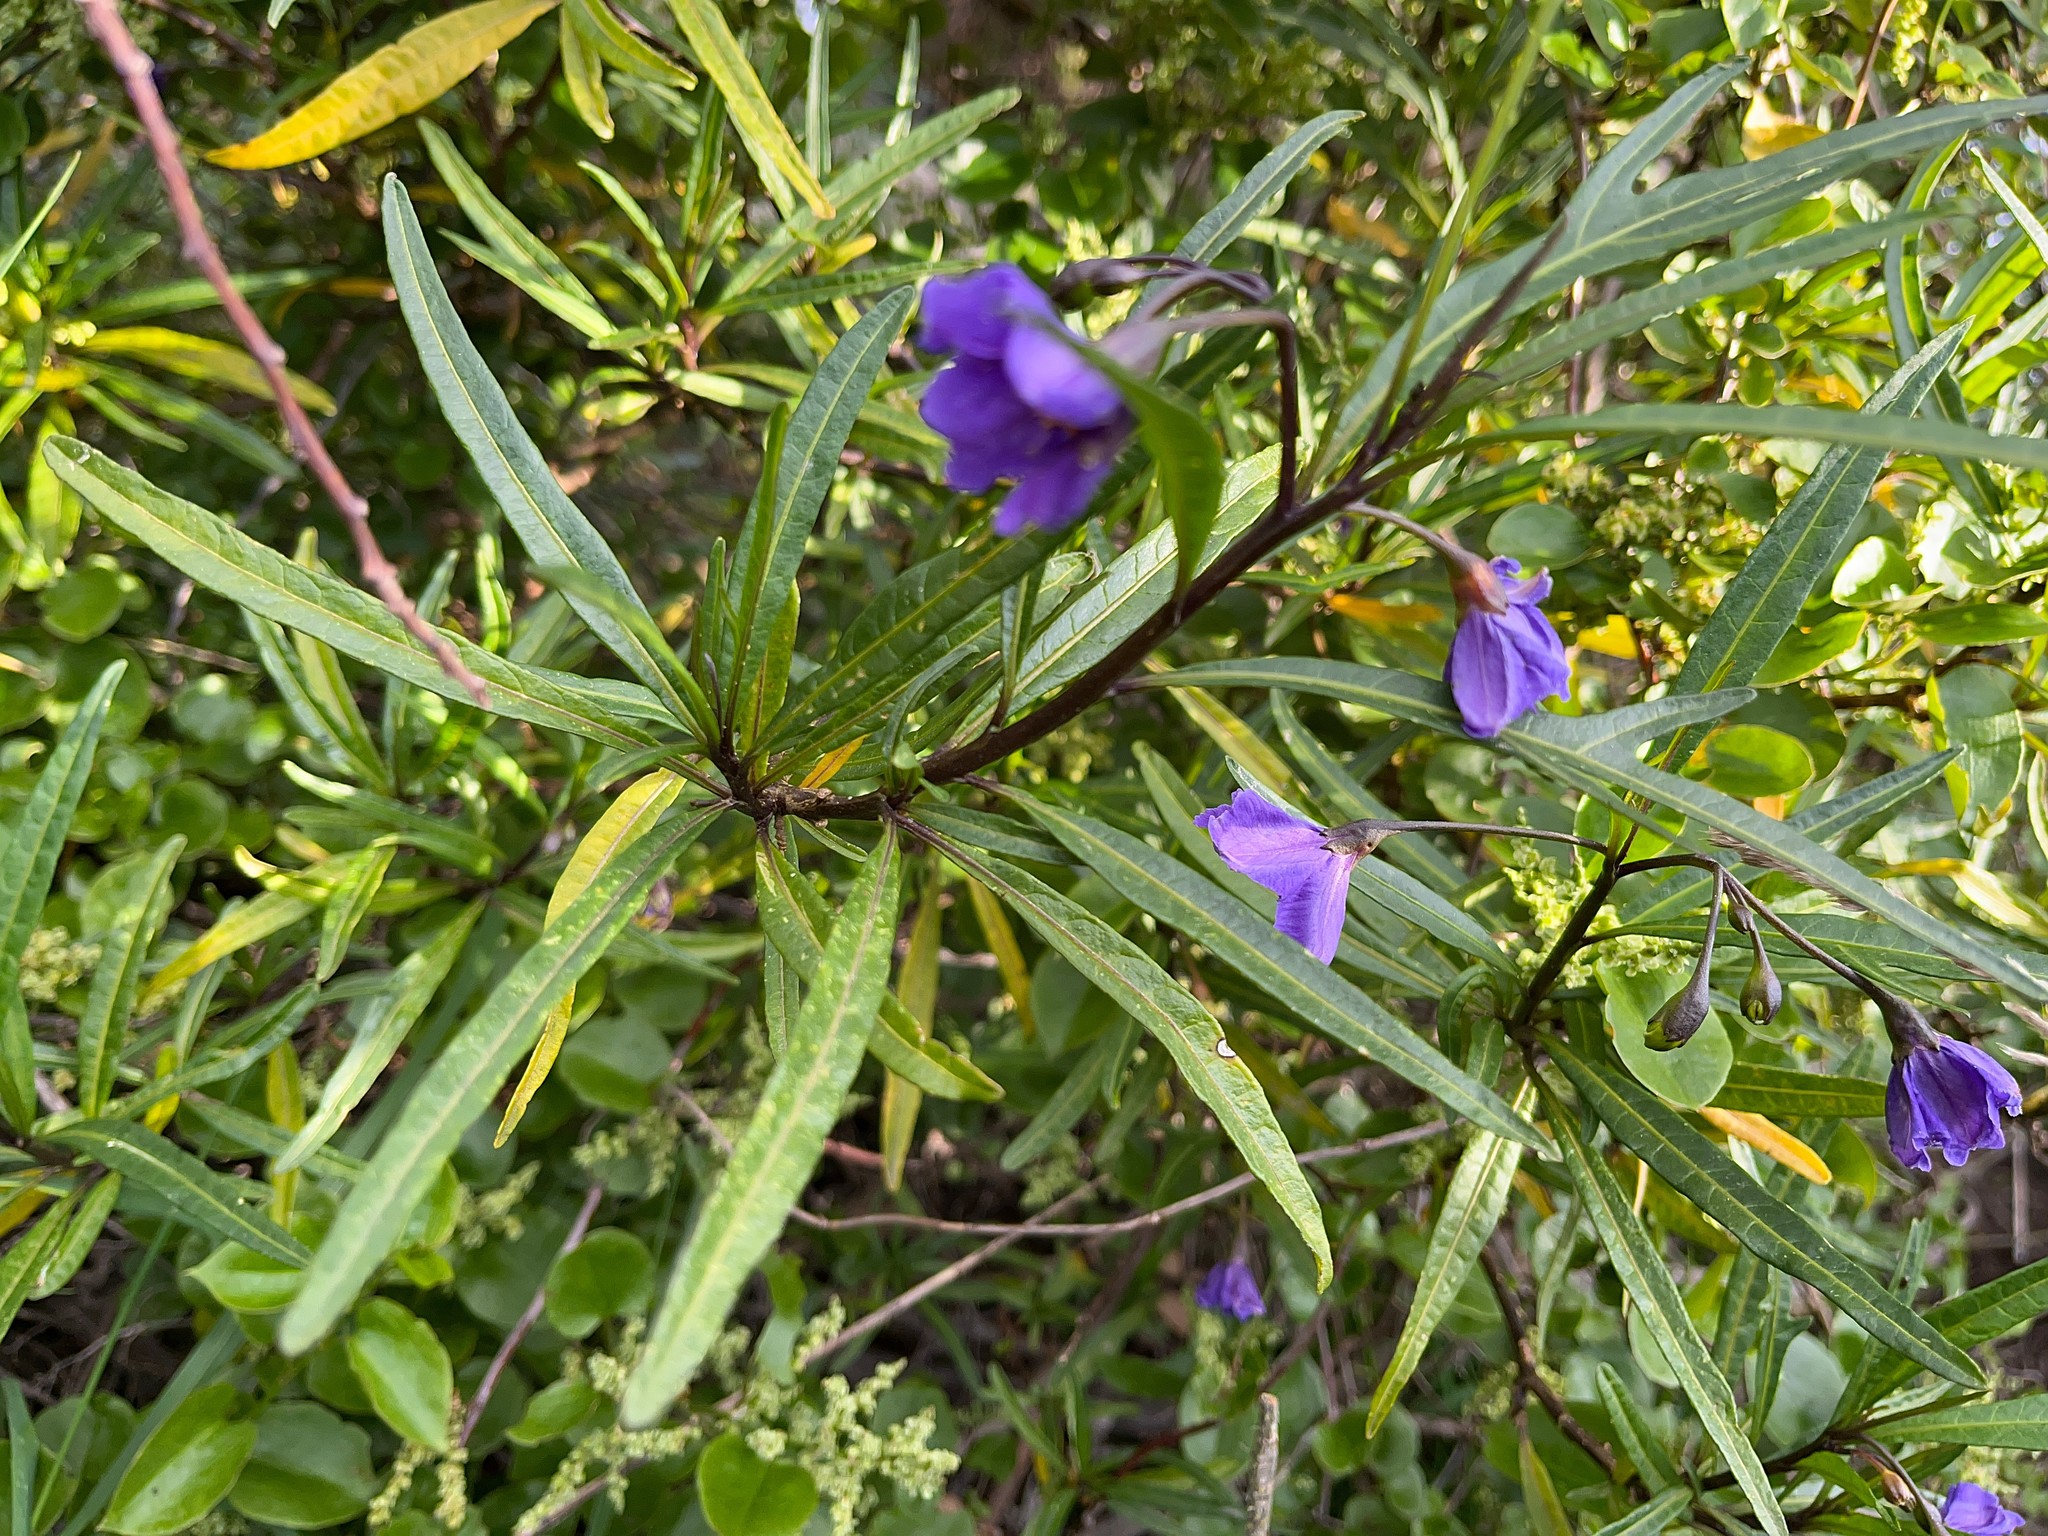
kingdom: Plantae
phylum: Tracheophyta
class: Magnoliopsida
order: Solanales
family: Solanaceae
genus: Solanum
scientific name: Solanum laciniatum
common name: Kangaroo-apple
